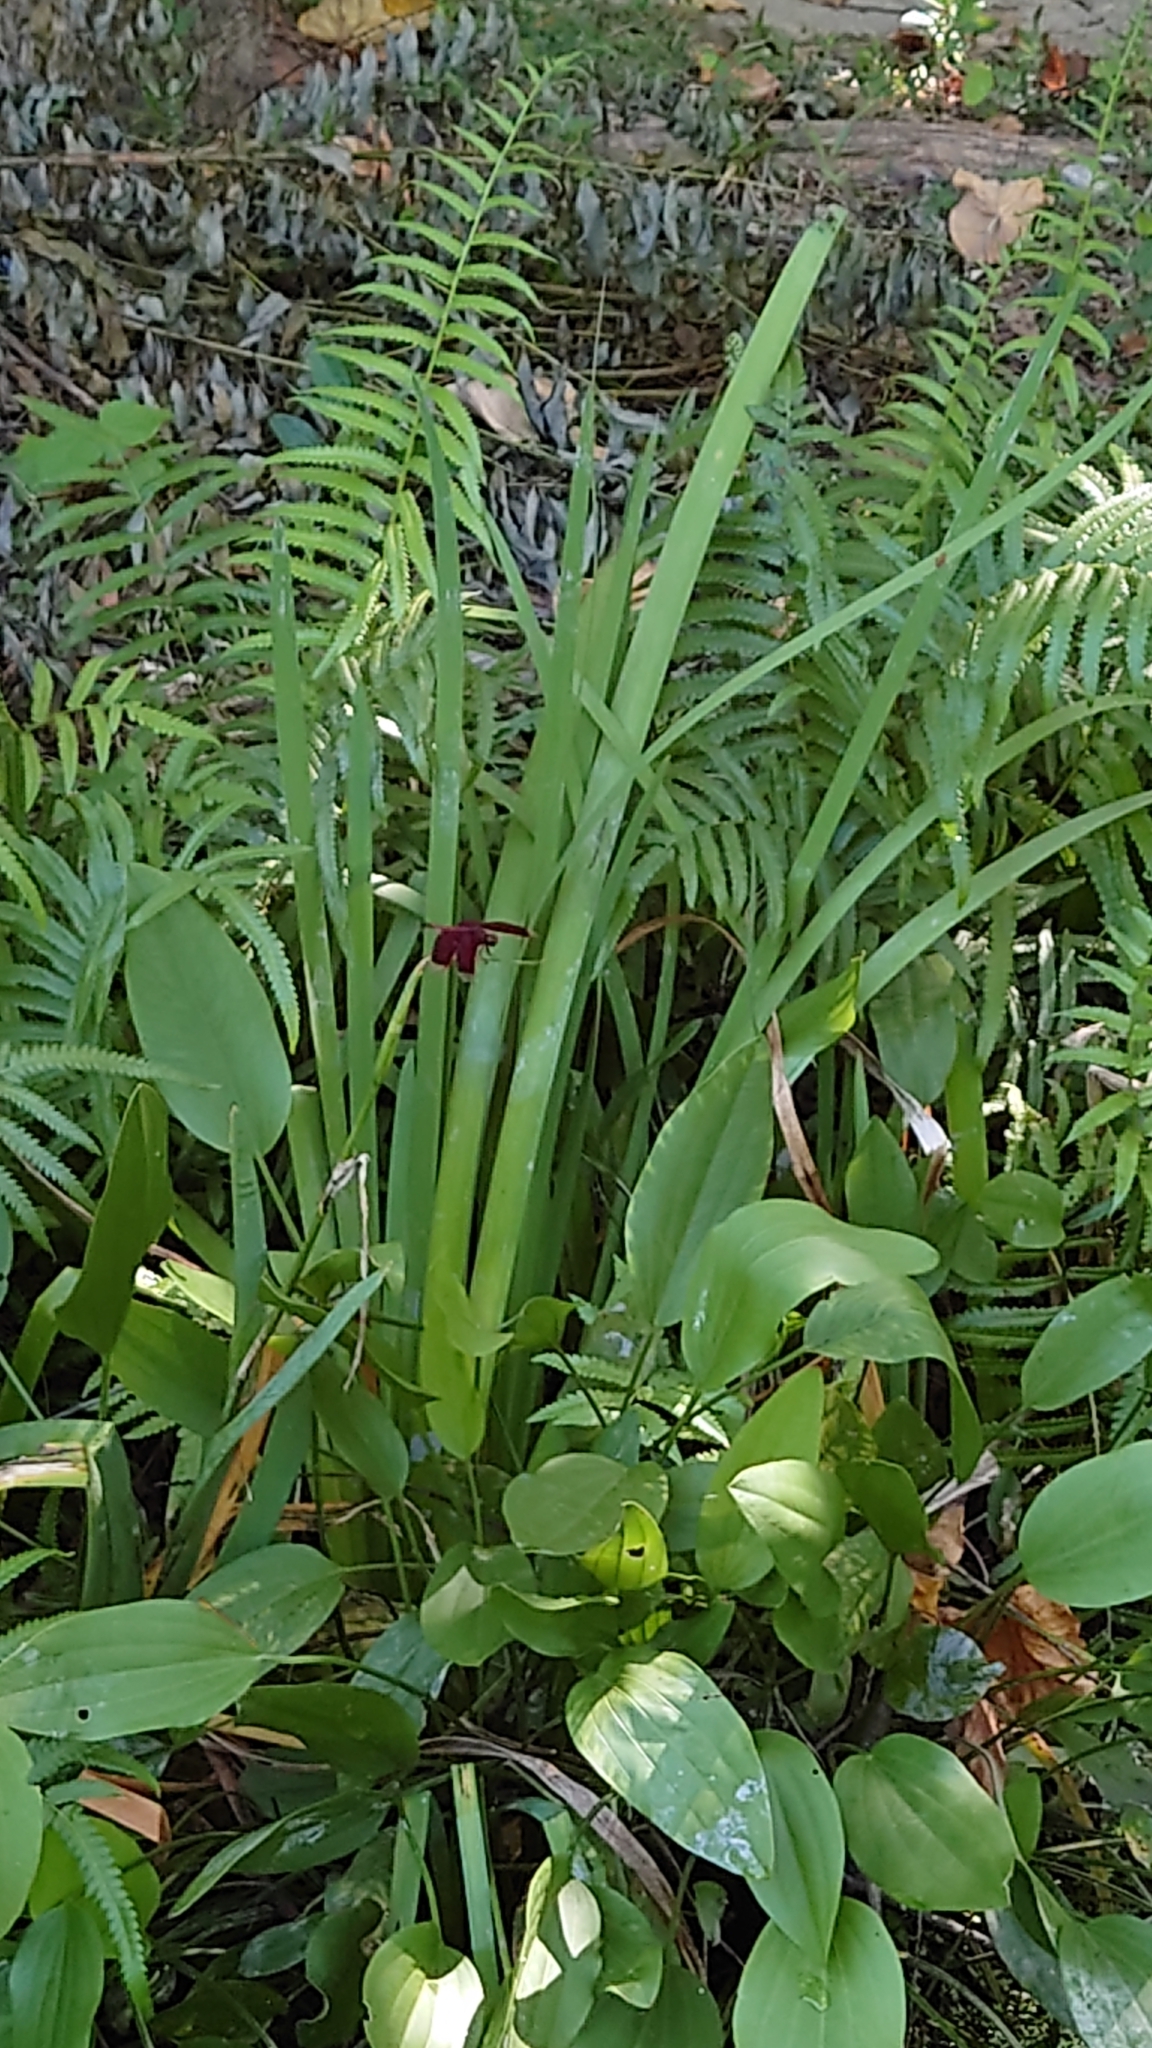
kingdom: Animalia
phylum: Arthropoda
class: Insecta
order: Odonata
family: Libellulidae
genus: Neurothemis
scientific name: Neurothemis taiwanensis
